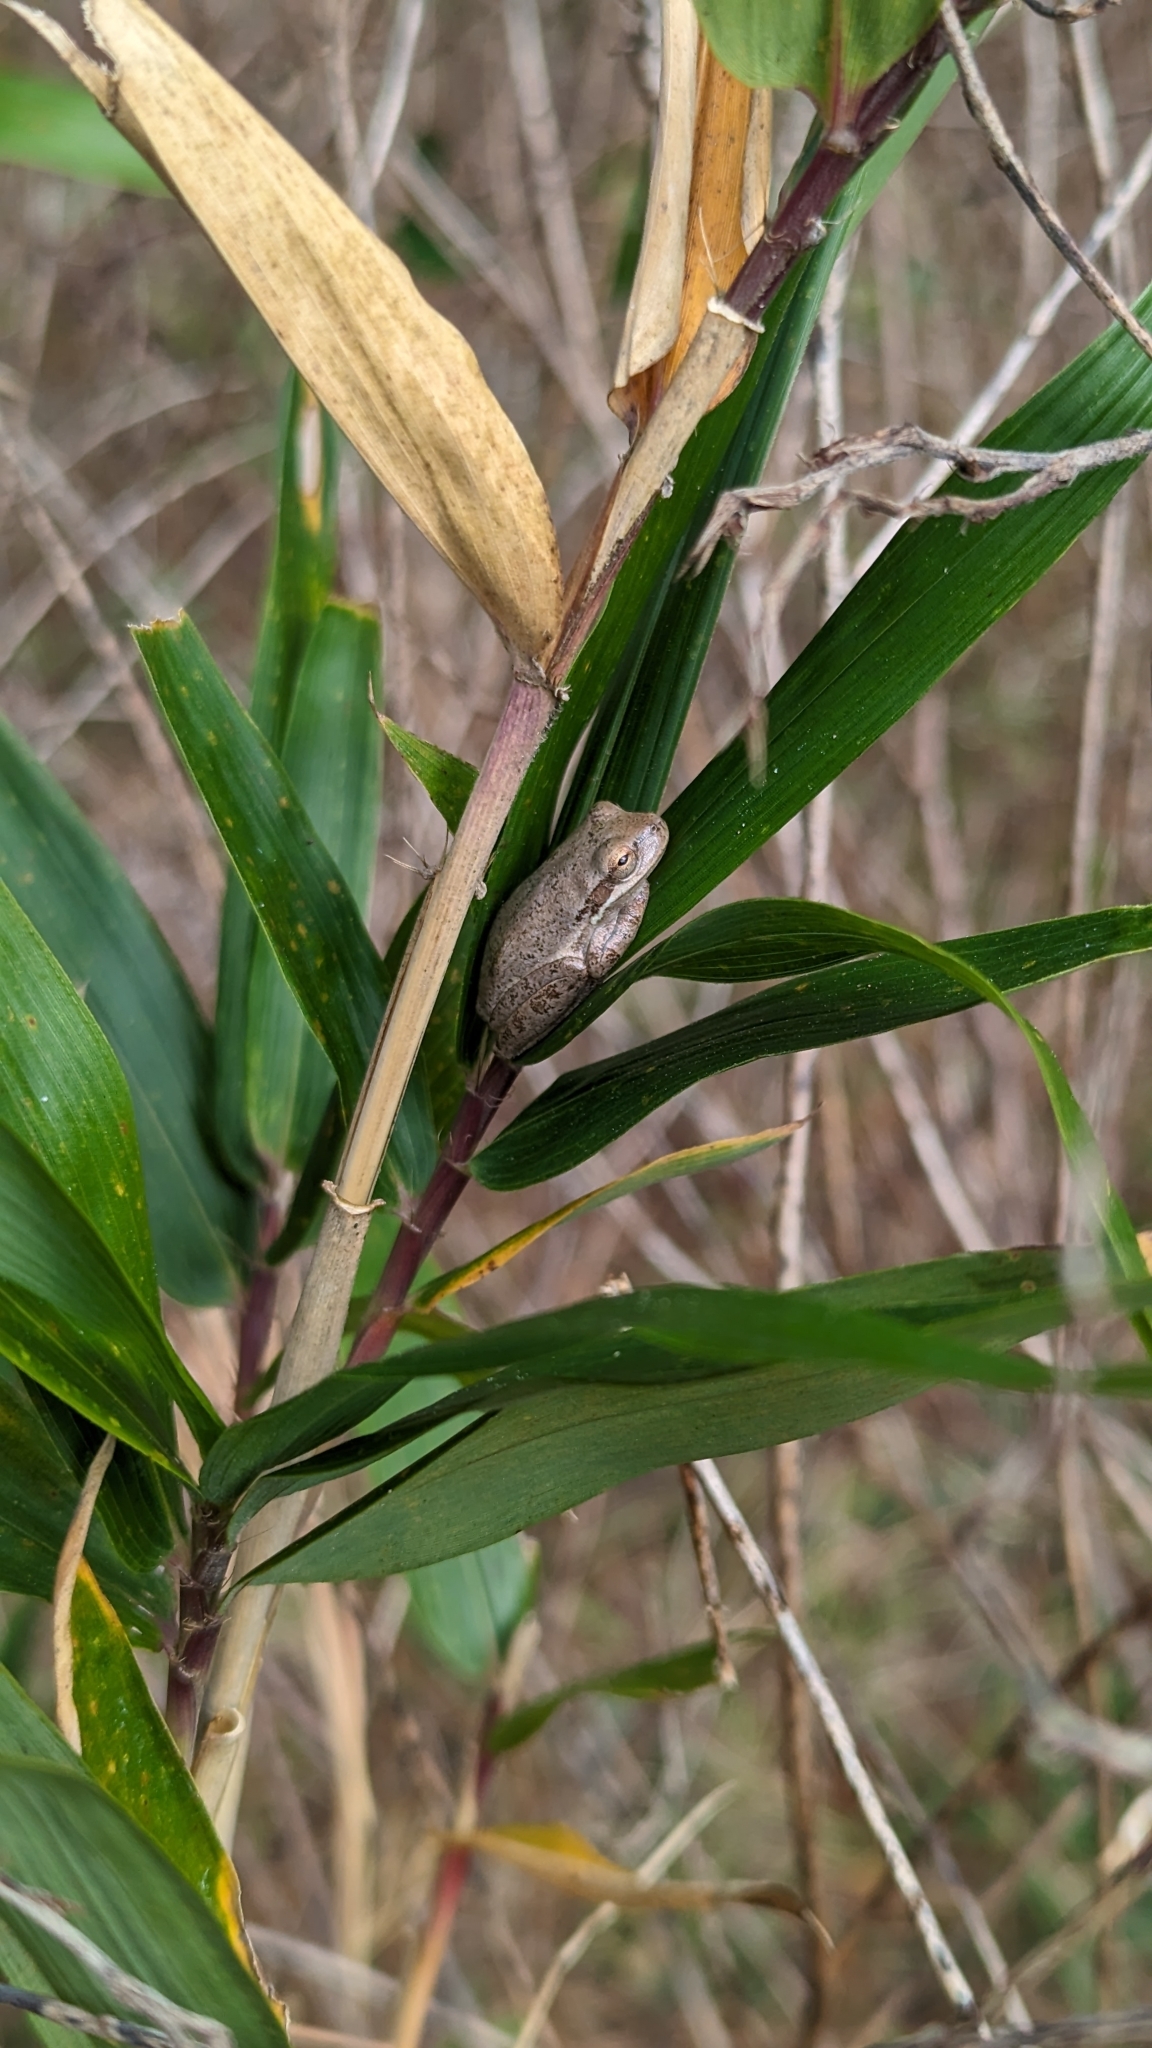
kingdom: Animalia
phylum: Chordata
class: Amphibia
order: Anura
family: Hylidae
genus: Dryophytes
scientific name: Dryophytes squirellus
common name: Squirrel treefrog
